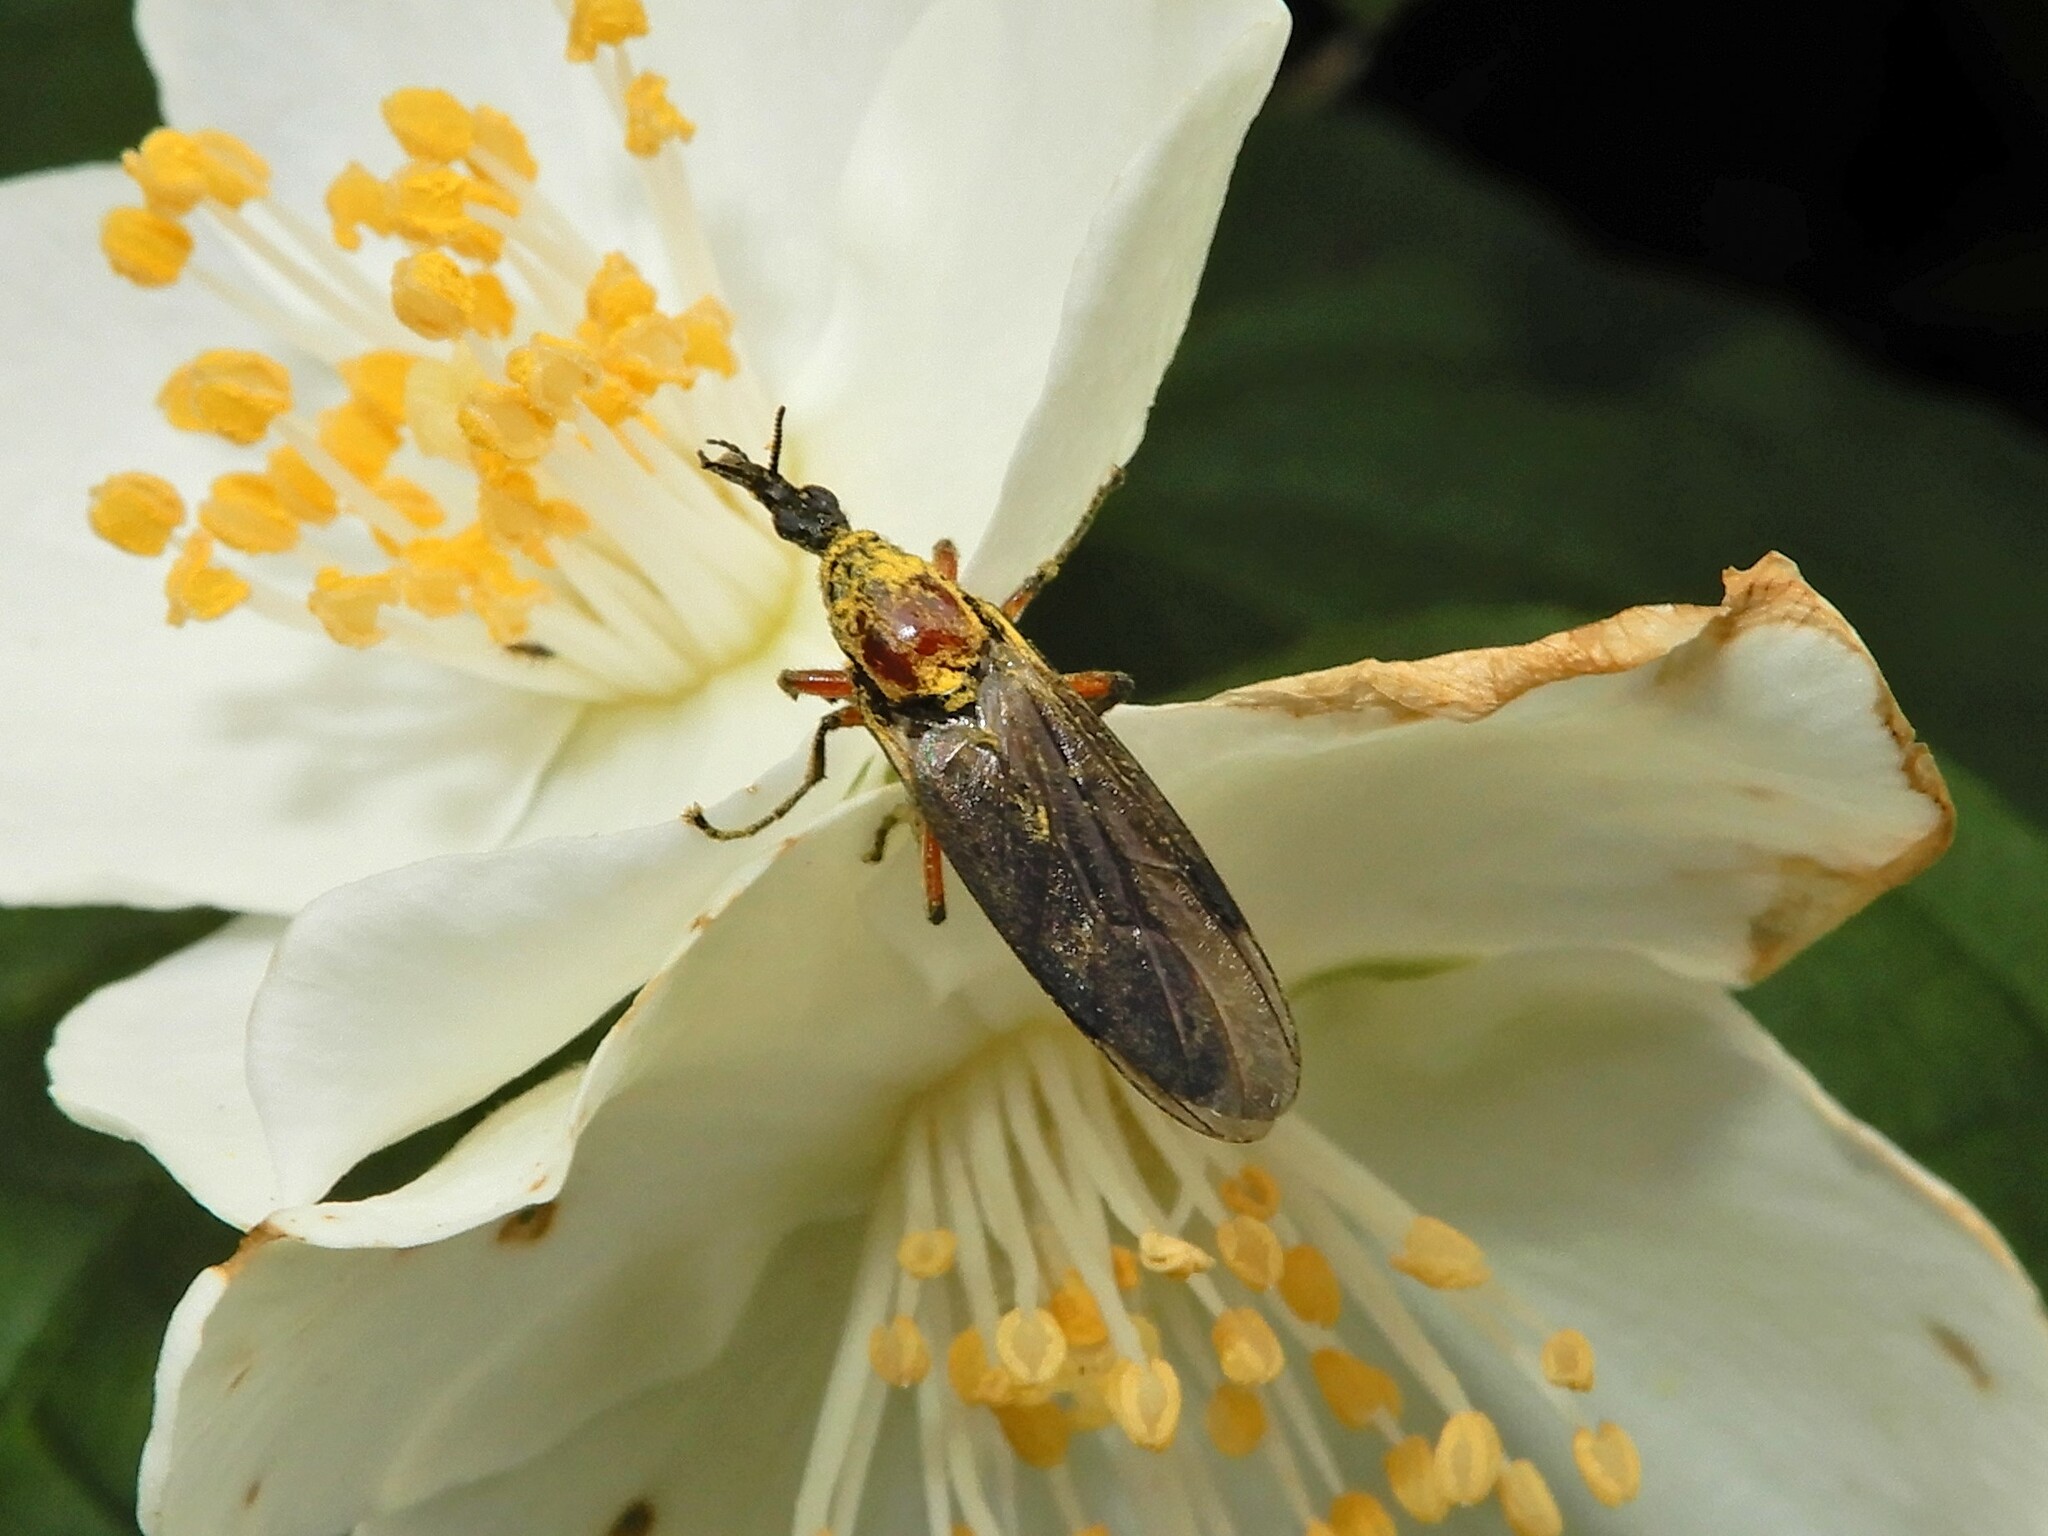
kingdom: Animalia
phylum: Arthropoda
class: Insecta
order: Diptera
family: Bibionidae
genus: Dilophus
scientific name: Dilophus nigrostigma
